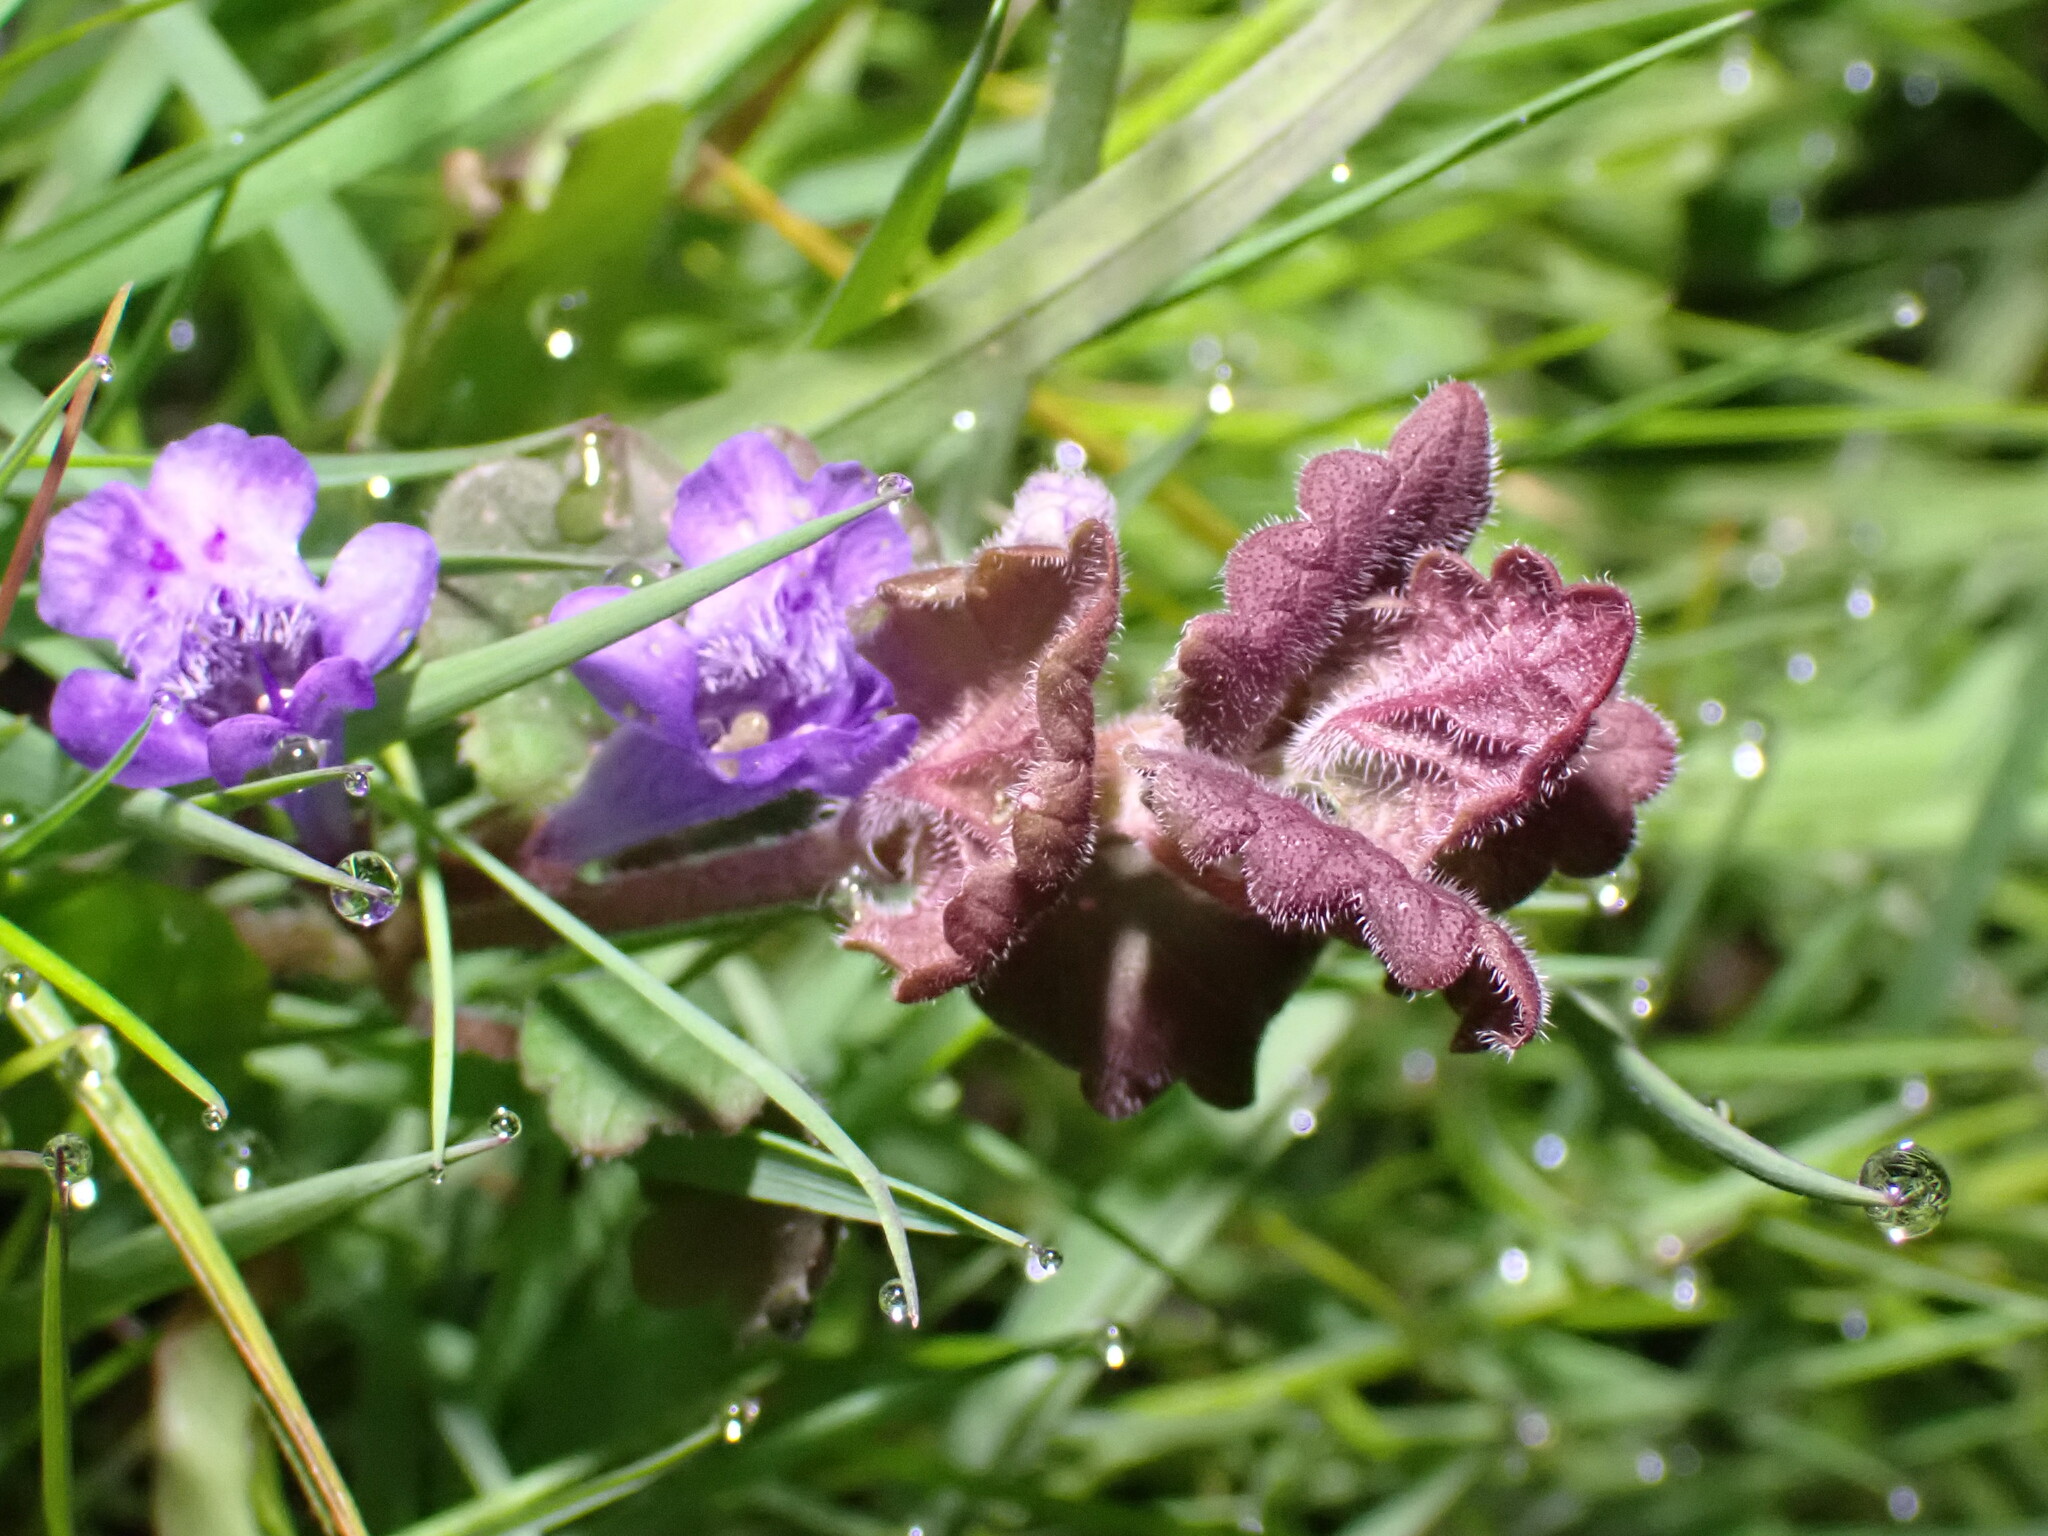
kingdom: Plantae
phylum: Tracheophyta
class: Magnoliopsida
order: Lamiales
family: Lamiaceae
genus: Glechoma
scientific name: Glechoma hederacea
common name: Ground ivy
